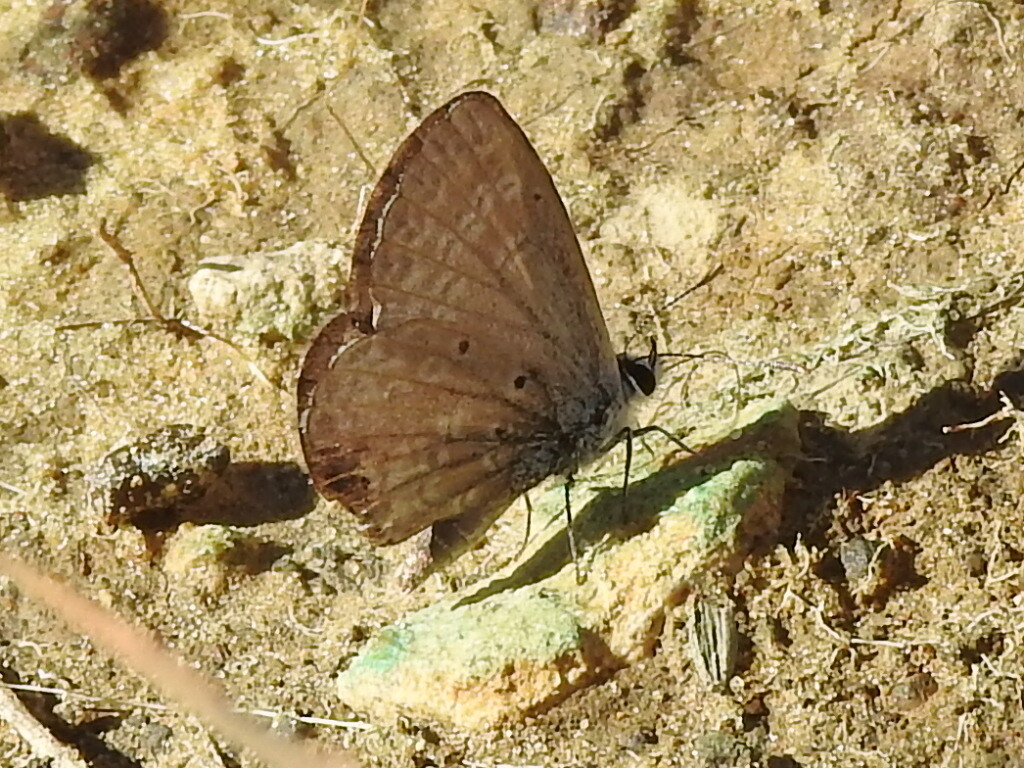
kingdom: Animalia
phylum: Arthropoda
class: Insecta
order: Lepidoptera
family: Lycaenidae
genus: Hemiargus
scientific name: Hemiargus ceraunus
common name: Ceraunus blue
